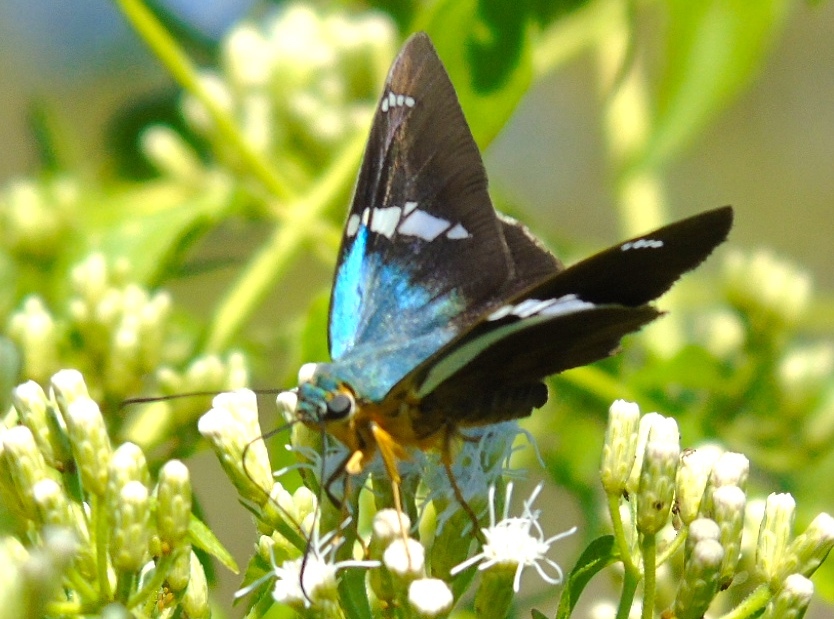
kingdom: Animalia
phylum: Arthropoda
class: Insecta
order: Lepidoptera
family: Hesperiidae
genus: Astraptes
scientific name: Astraptes fulgerator
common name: Two-barred flasher
